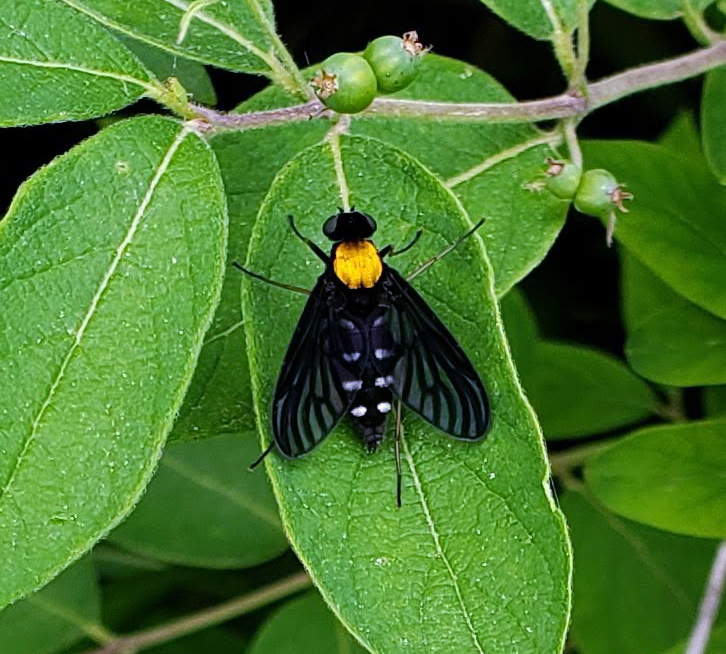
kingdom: Animalia
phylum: Arthropoda
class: Insecta
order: Diptera
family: Rhagionidae
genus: Chrysopilus
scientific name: Chrysopilus thoracicus
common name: Golden-backed snipe fly
